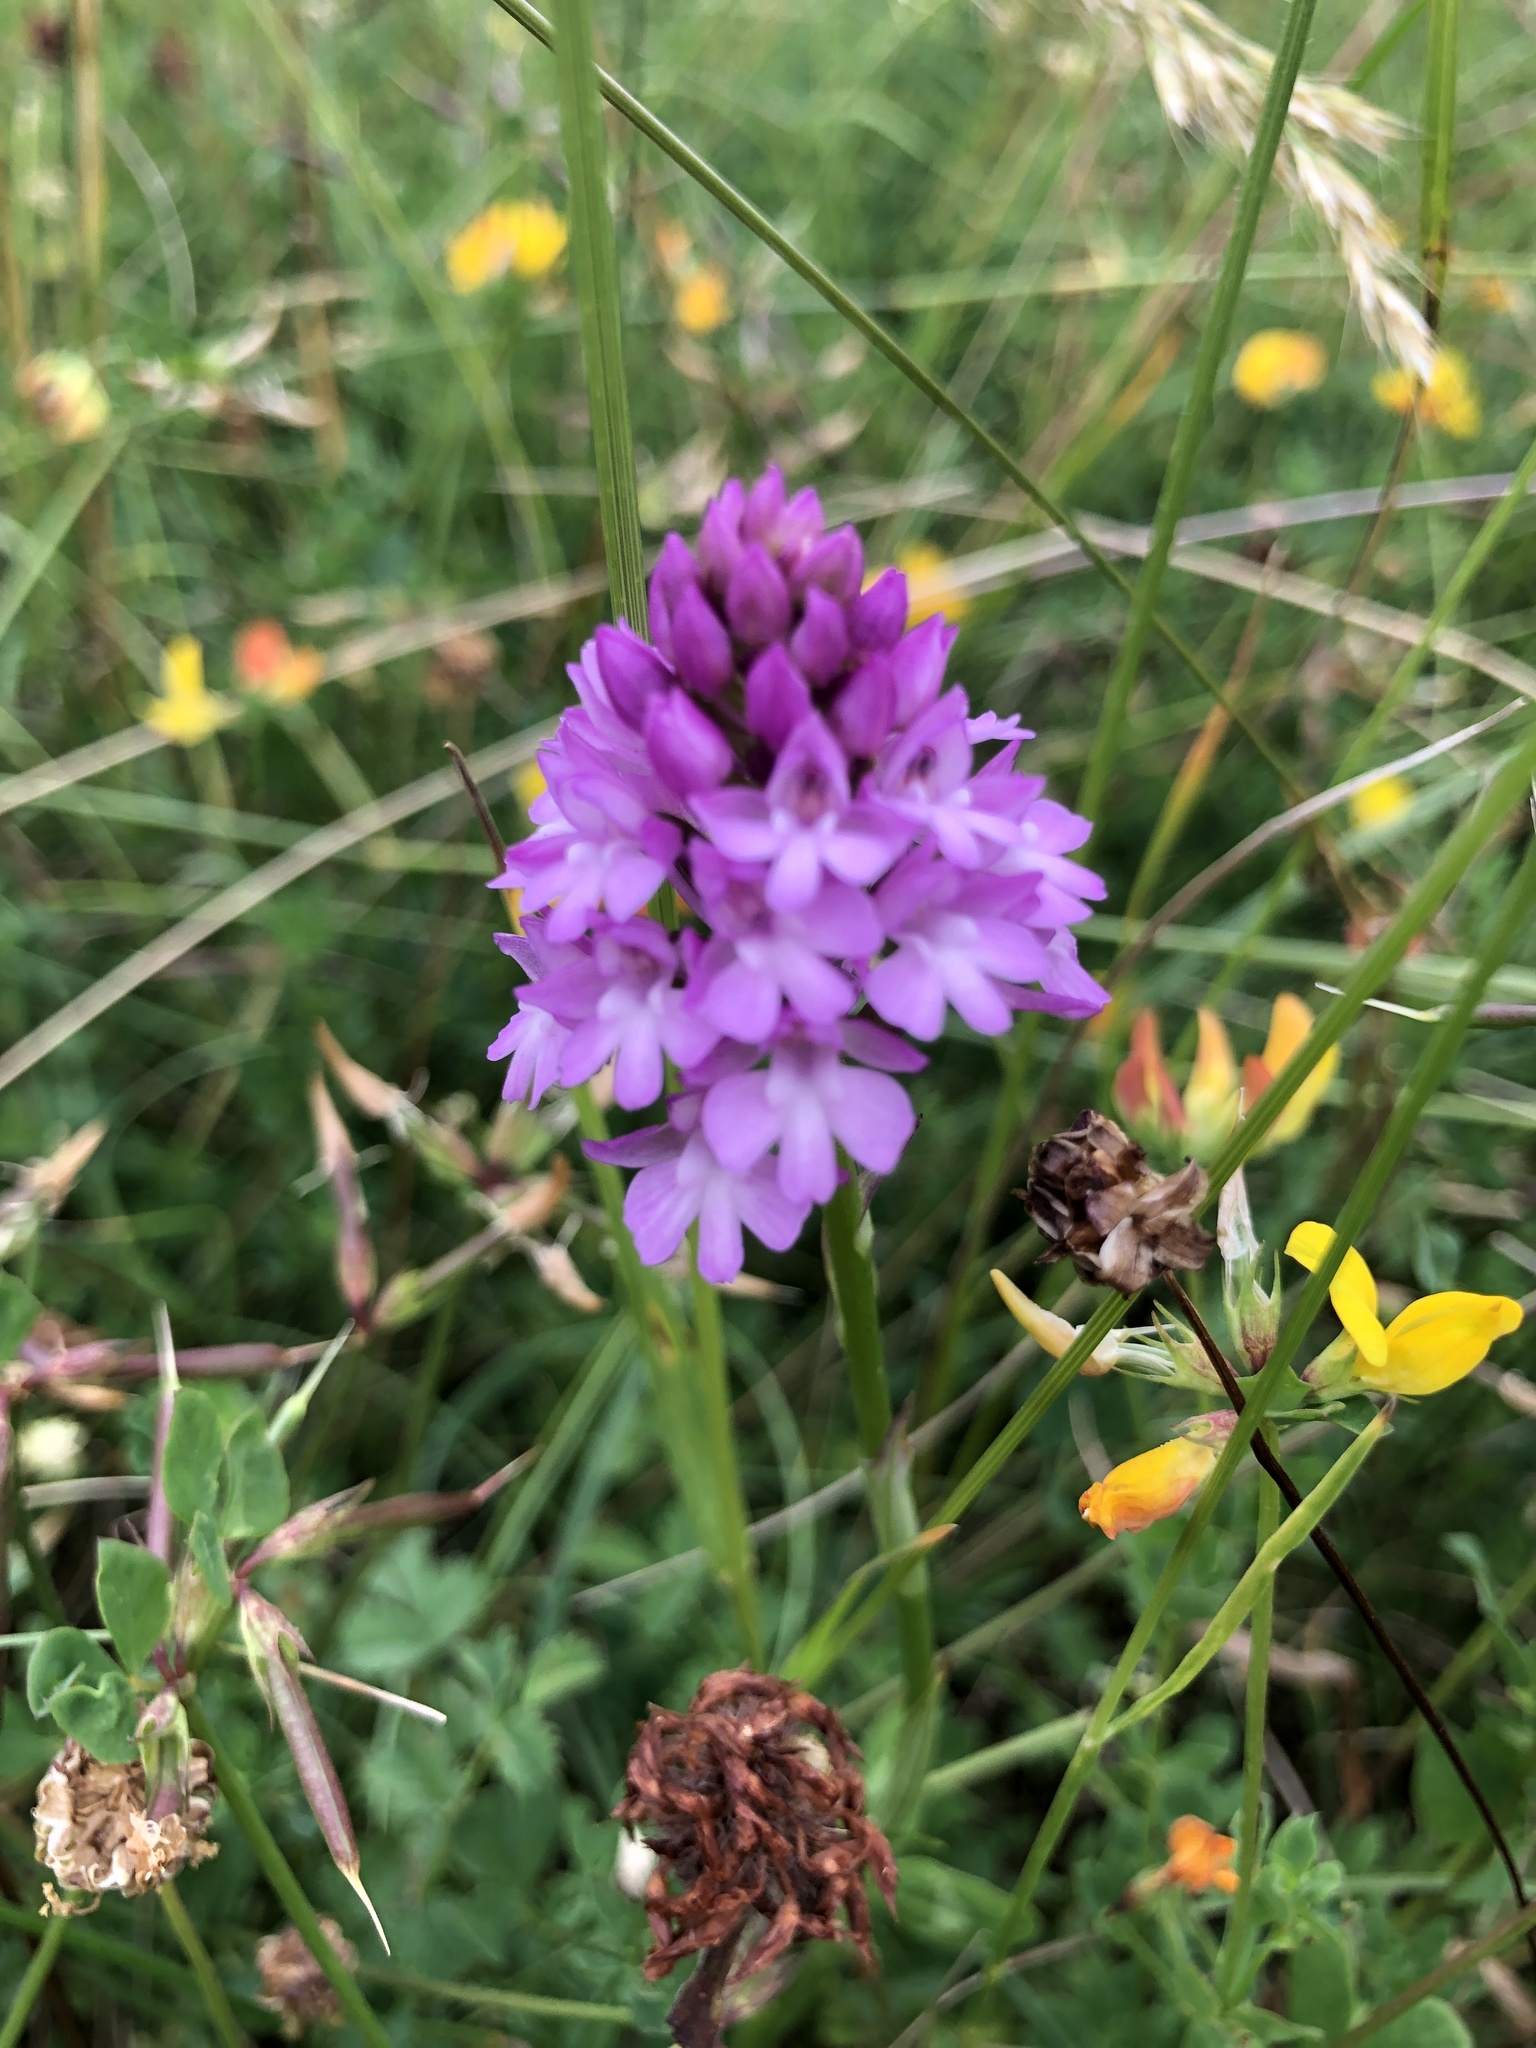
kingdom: Plantae
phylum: Tracheophyta
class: Liliopsida
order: Asparagales
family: Orchidaceae
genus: Anacamptis
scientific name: Anacamptis pyramidalis
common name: Pyramidal orchid
